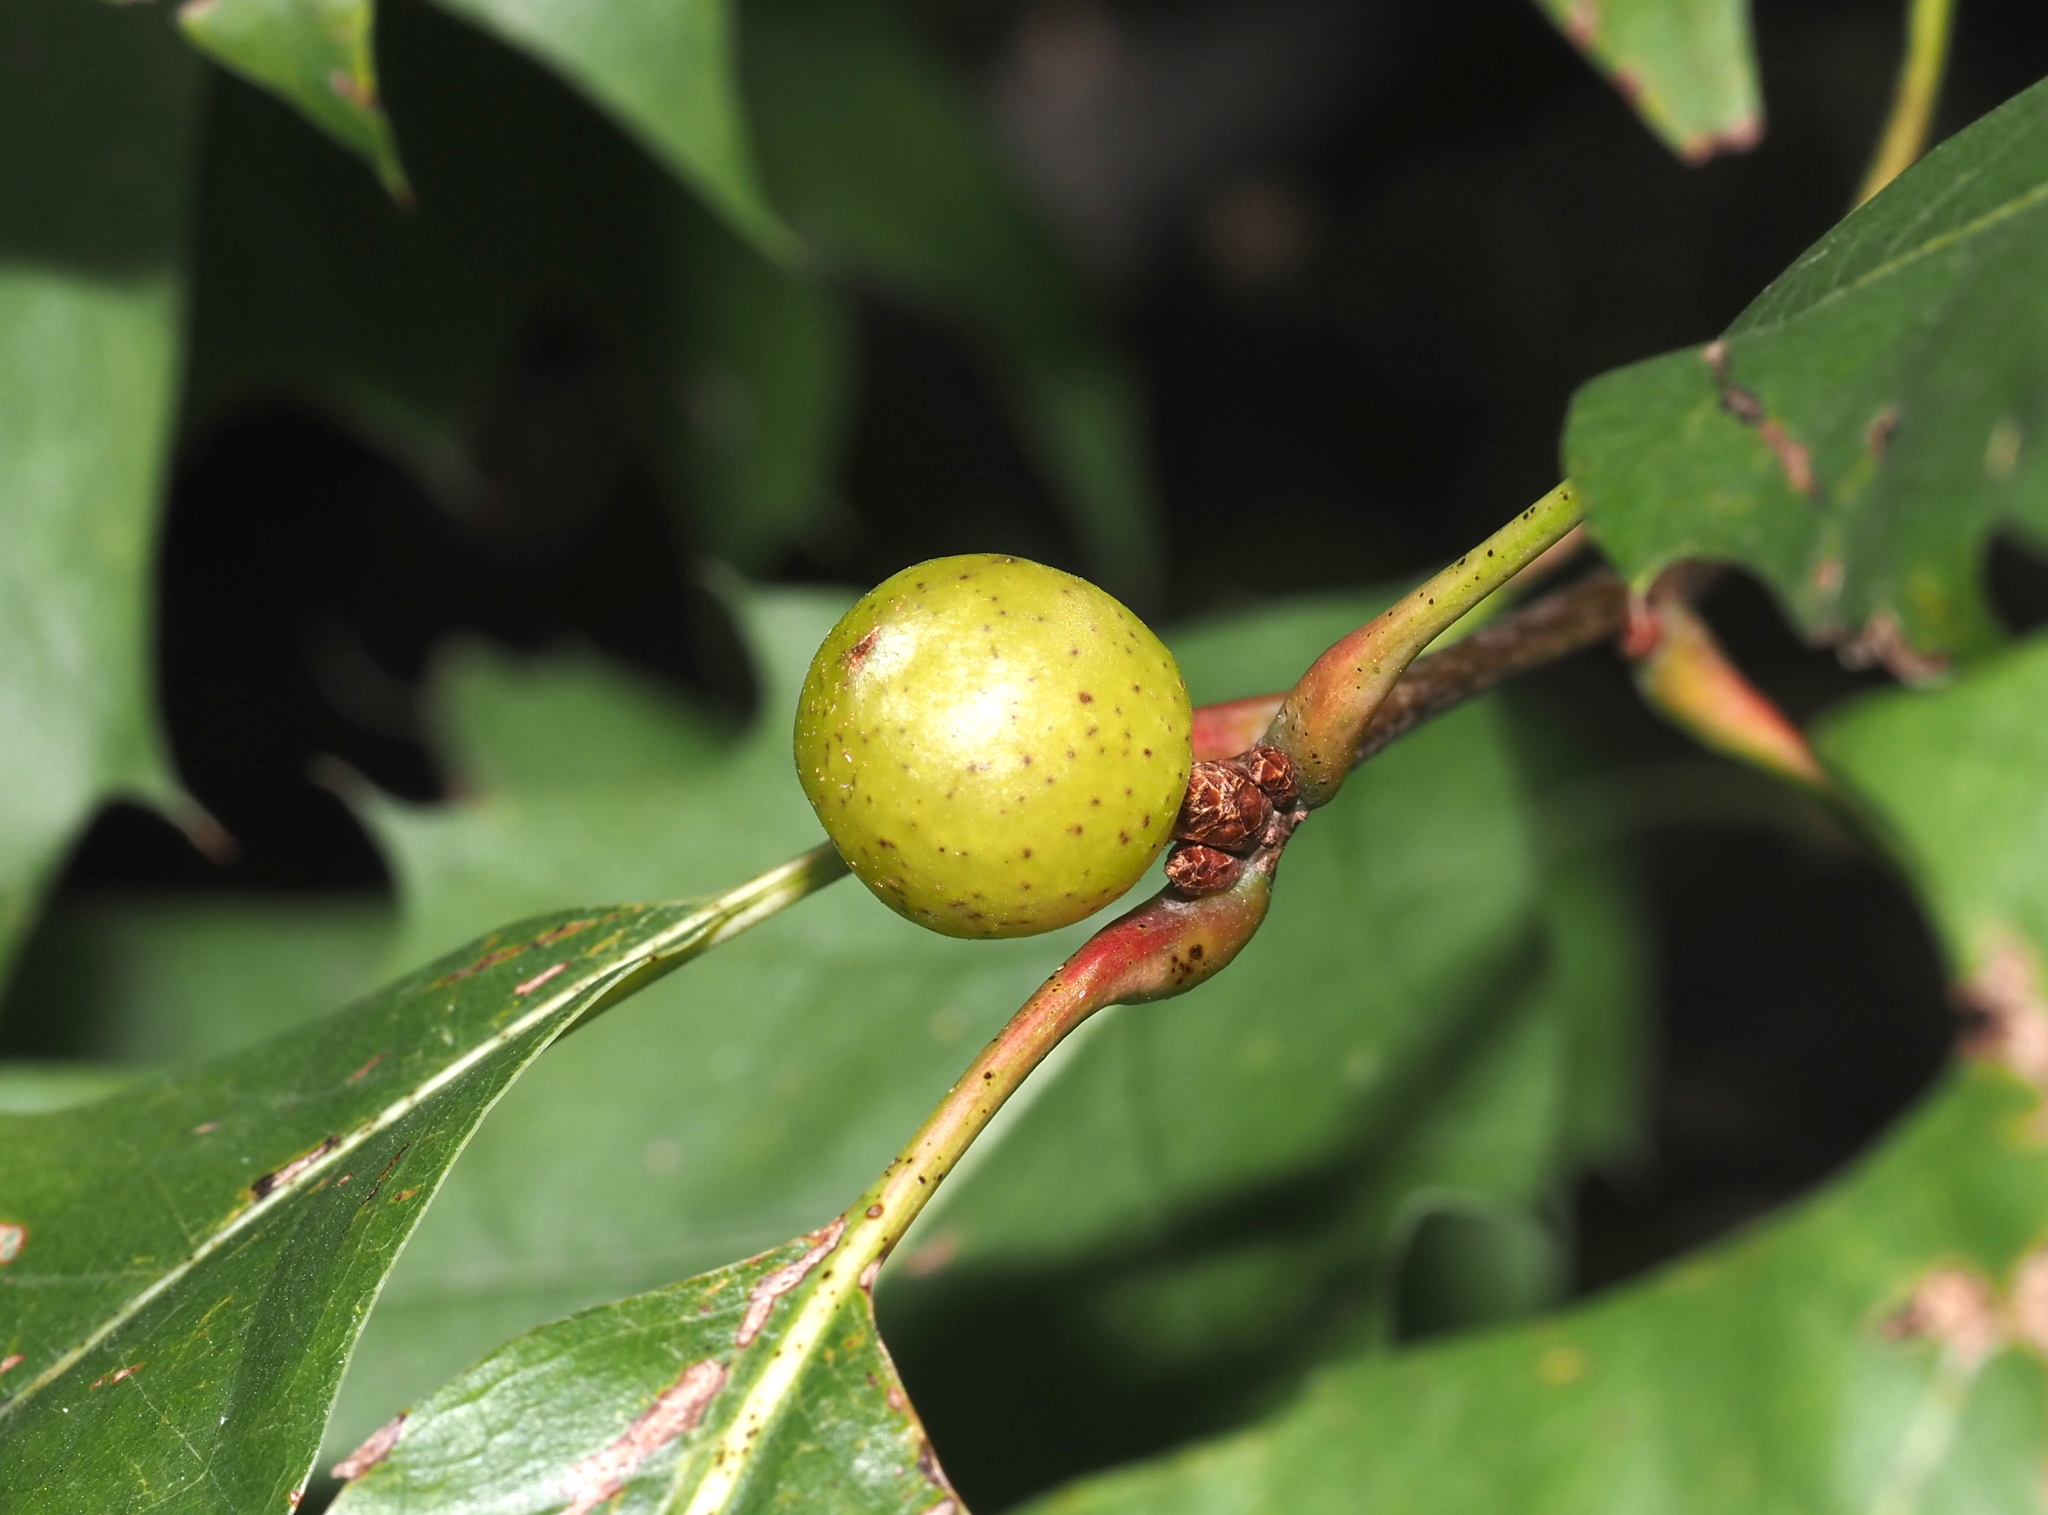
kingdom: Animalia
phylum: Arthropoda
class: Insecta
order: Hymenoptera
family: Cynipidae
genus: Amphibolips
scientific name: Amphibolips
